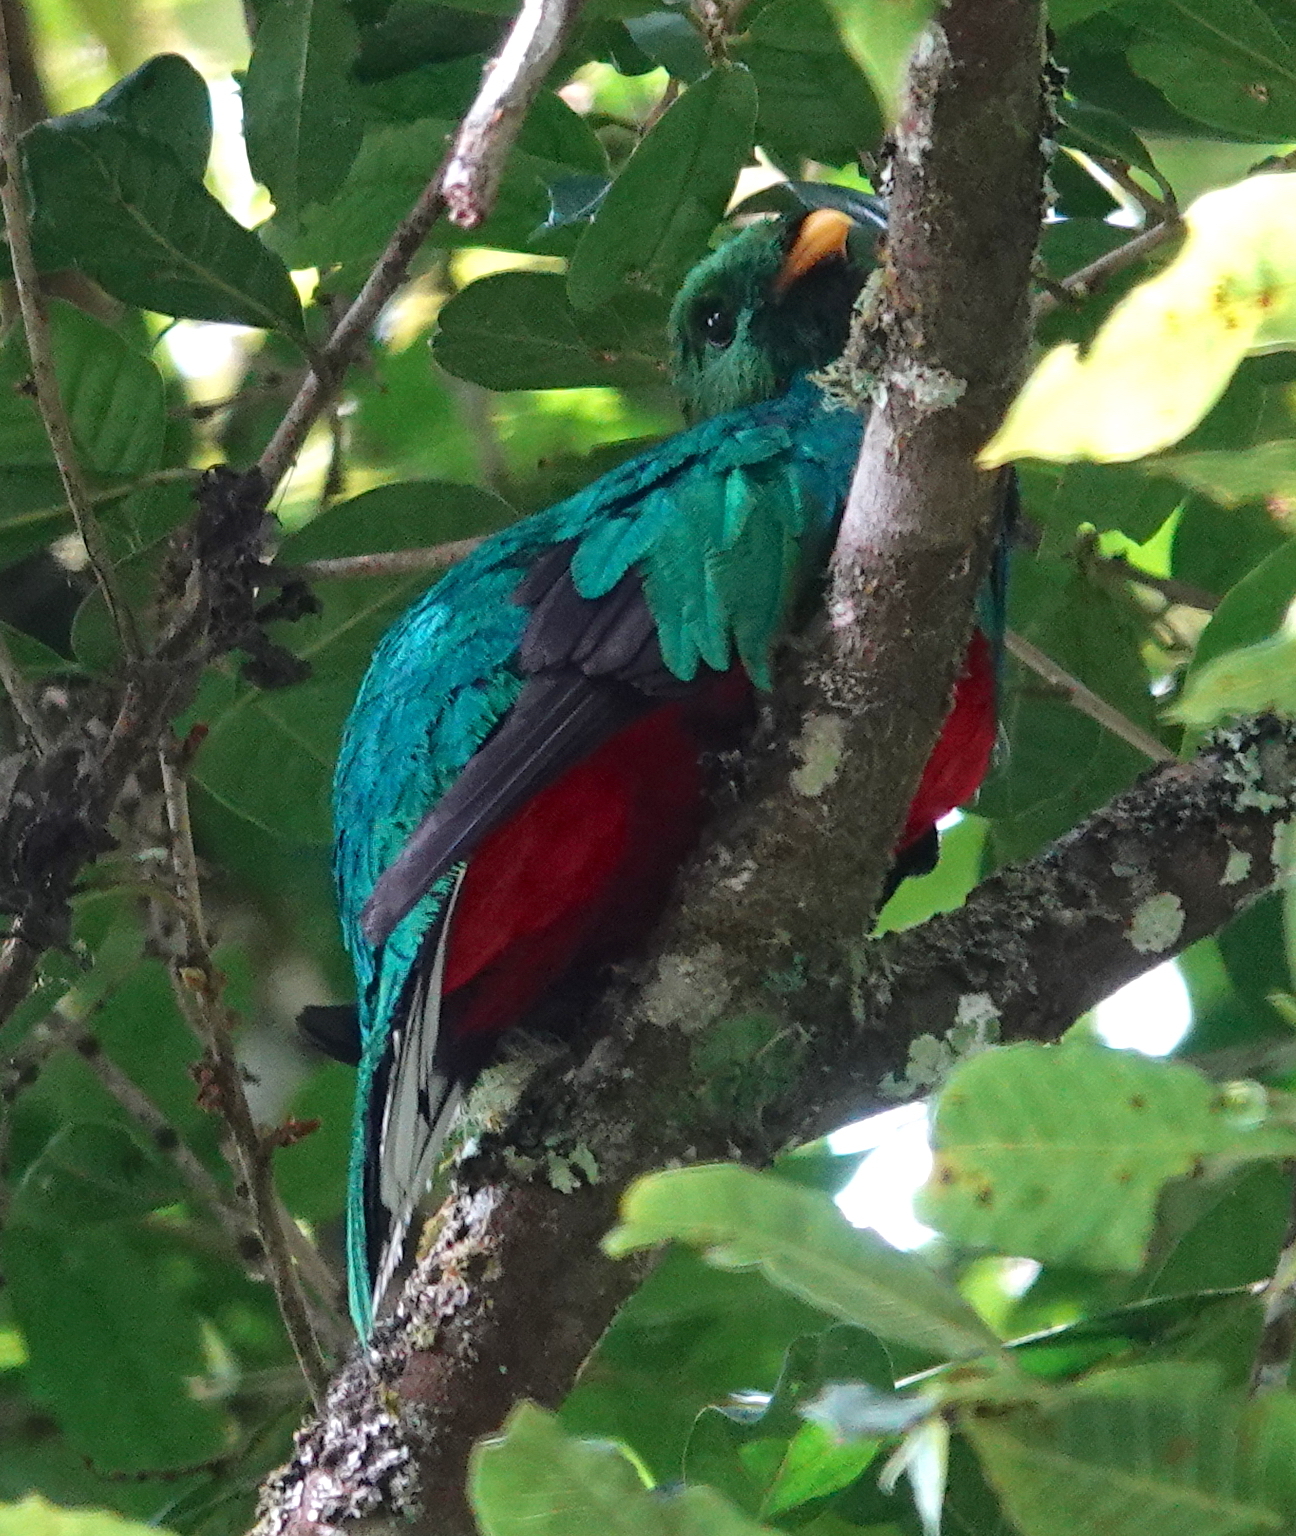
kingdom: Animalia
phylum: Chordata
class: Aves
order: Trogoniformes
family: Trogonidae
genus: Pharomachrus
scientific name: Pharomachrus fulgidus
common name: White-tipped quetzal
